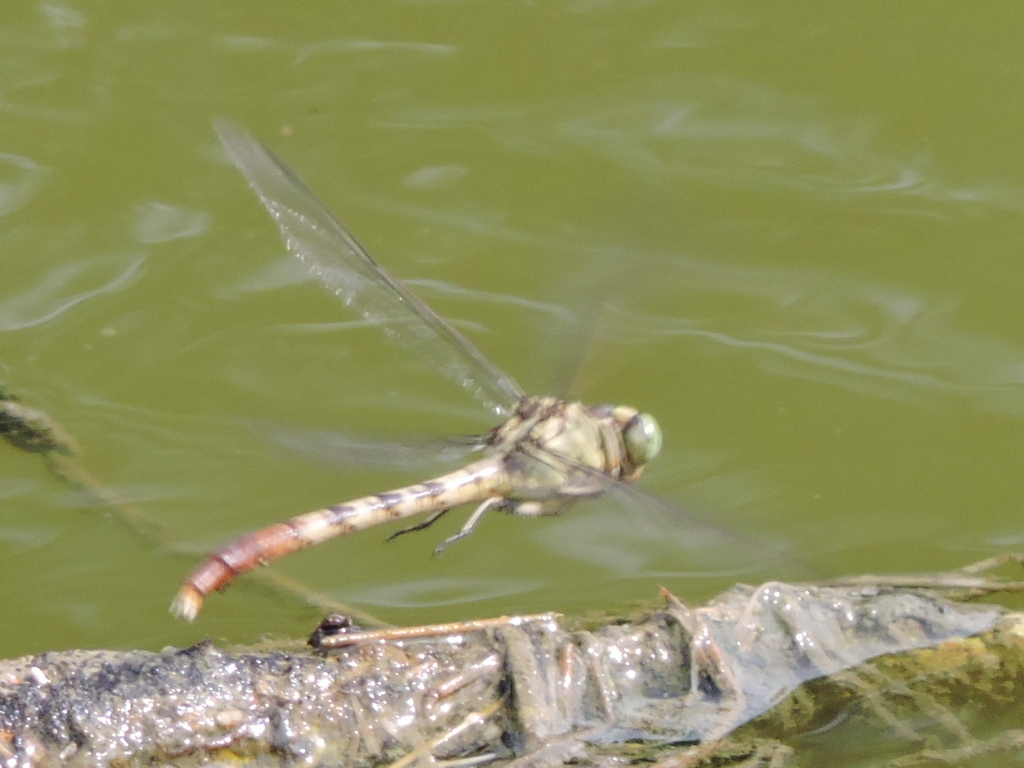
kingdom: Animalia
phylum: Arthropoda
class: Insecta
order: Odonata
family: Gomphidae
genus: Arigomphus
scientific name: Arigomphus submedianus
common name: Jade clubtail
